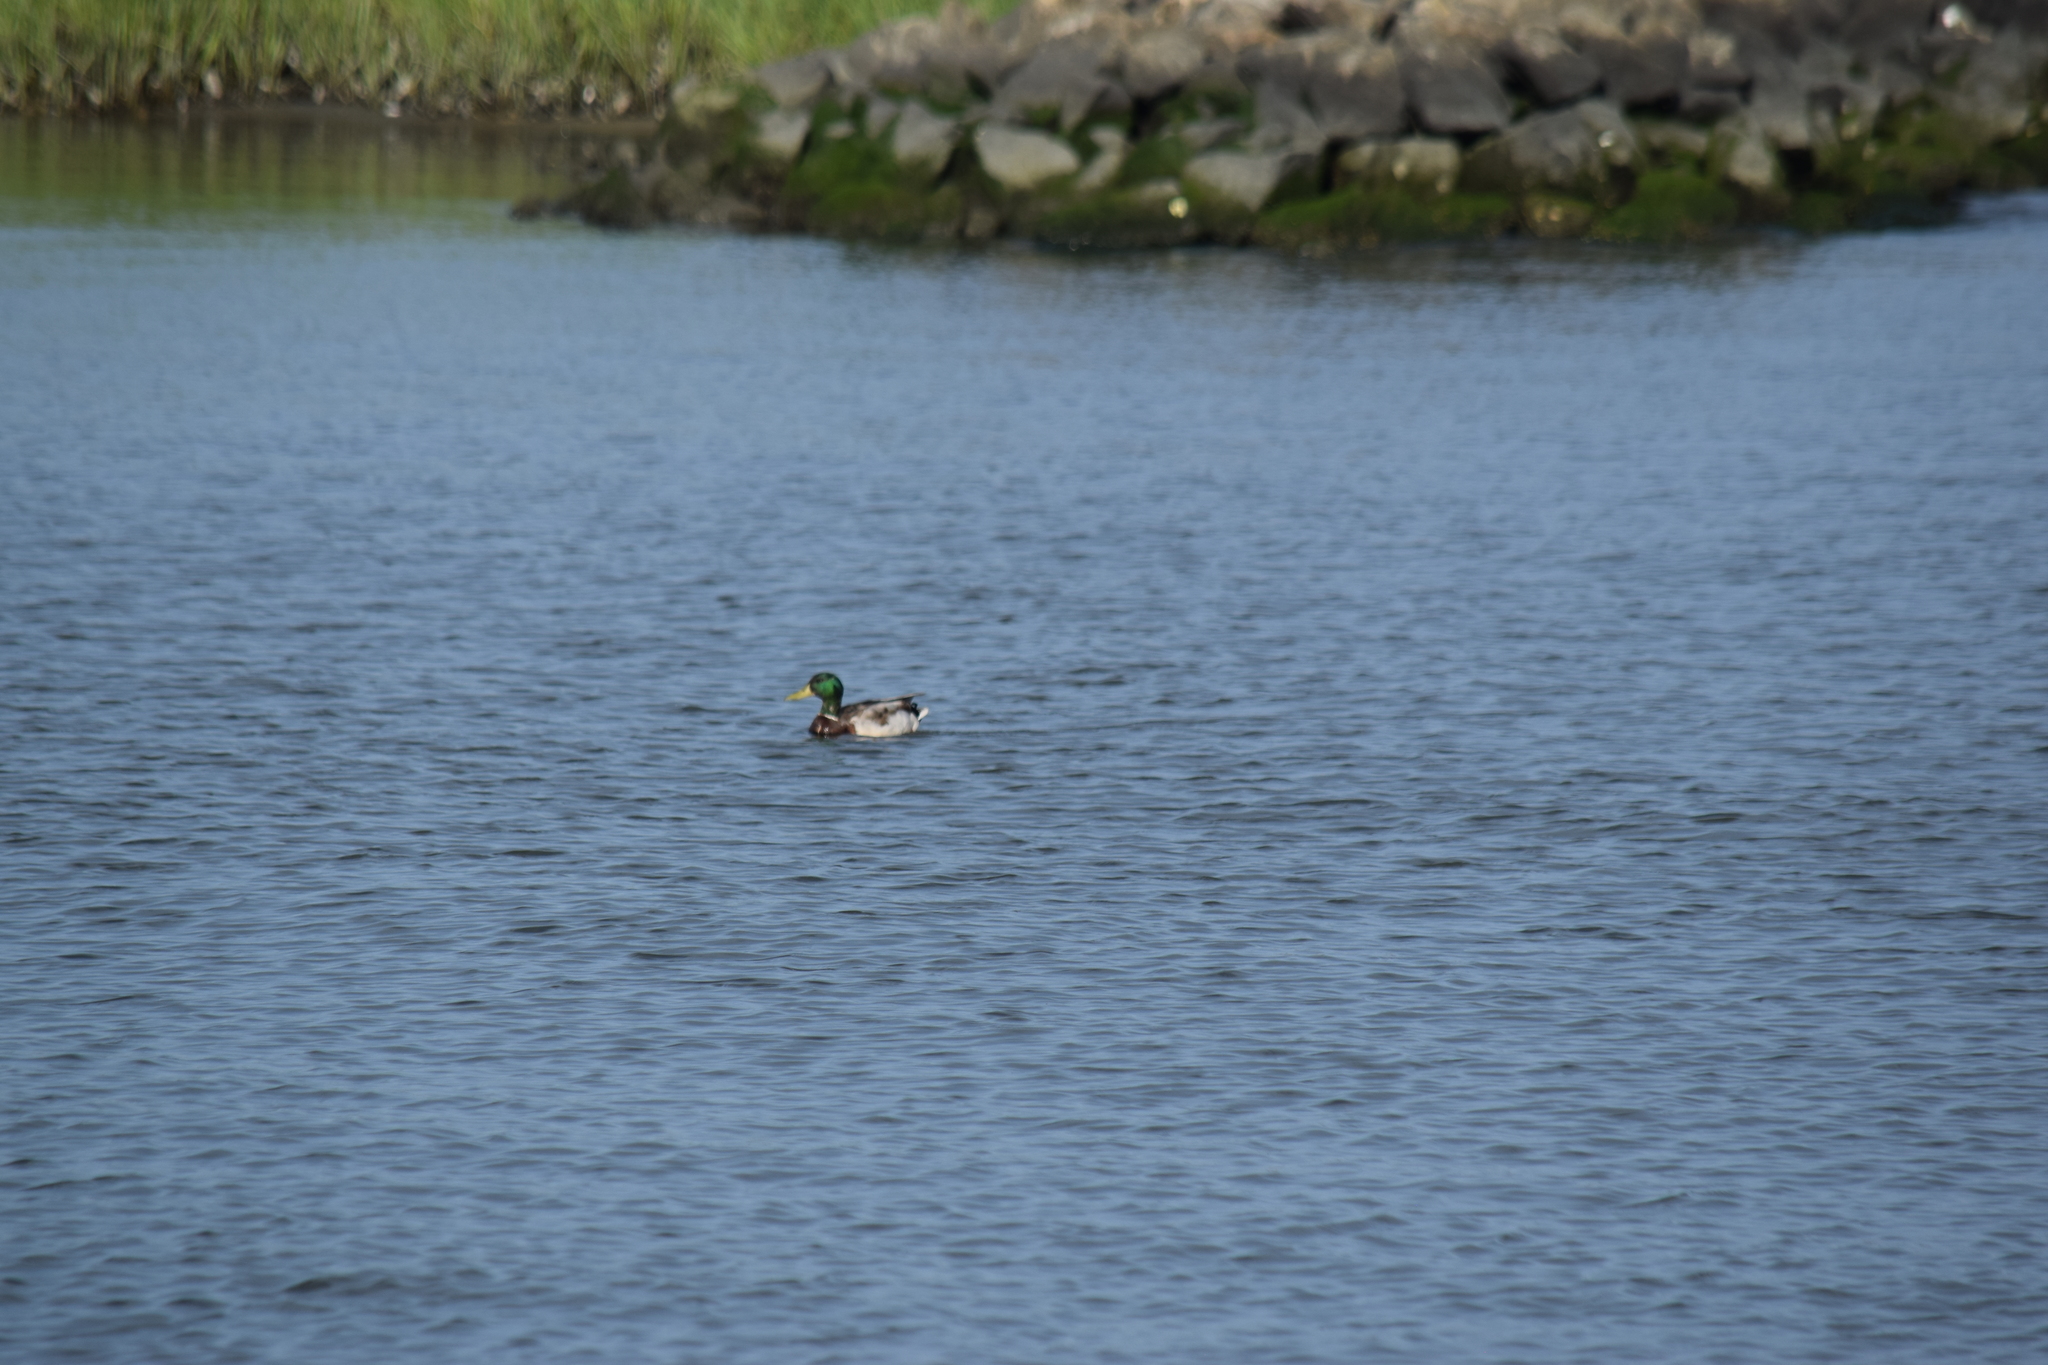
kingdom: Animalia
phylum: Chordata
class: Aves
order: Anseriformes
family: Anatidae
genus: Anas
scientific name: Anas platyrhynchos
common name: Mallard
